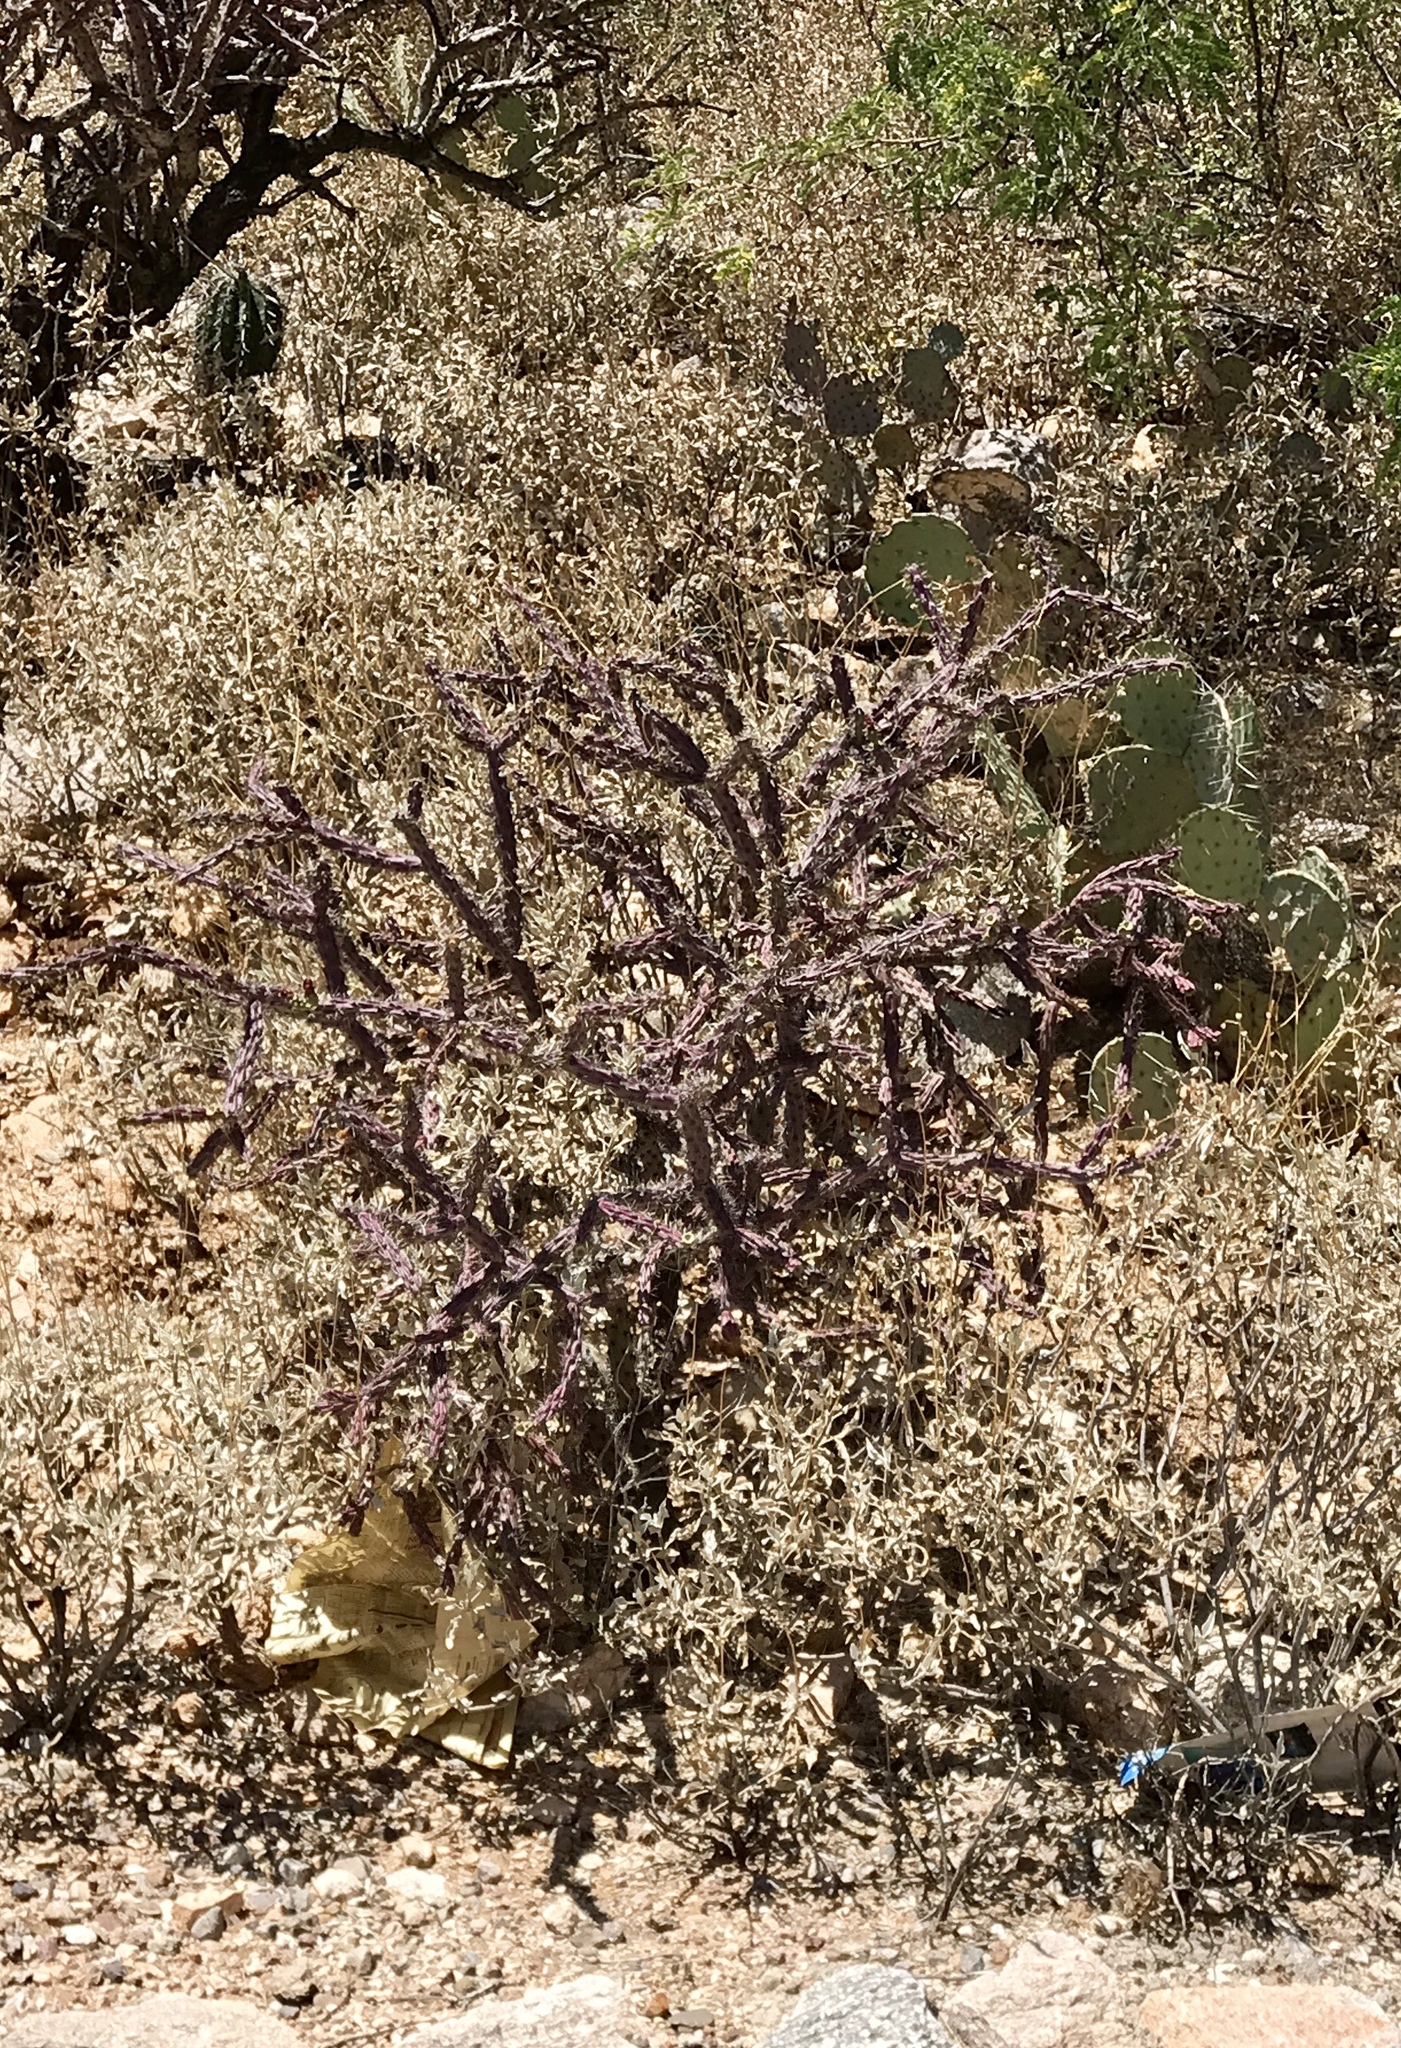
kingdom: Plantae
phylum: Tracheophyta
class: Magnoliopsida
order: Caryophyllales
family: Cactaceae
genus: Cylindropuntia
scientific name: Cylindropuntia thurberi
